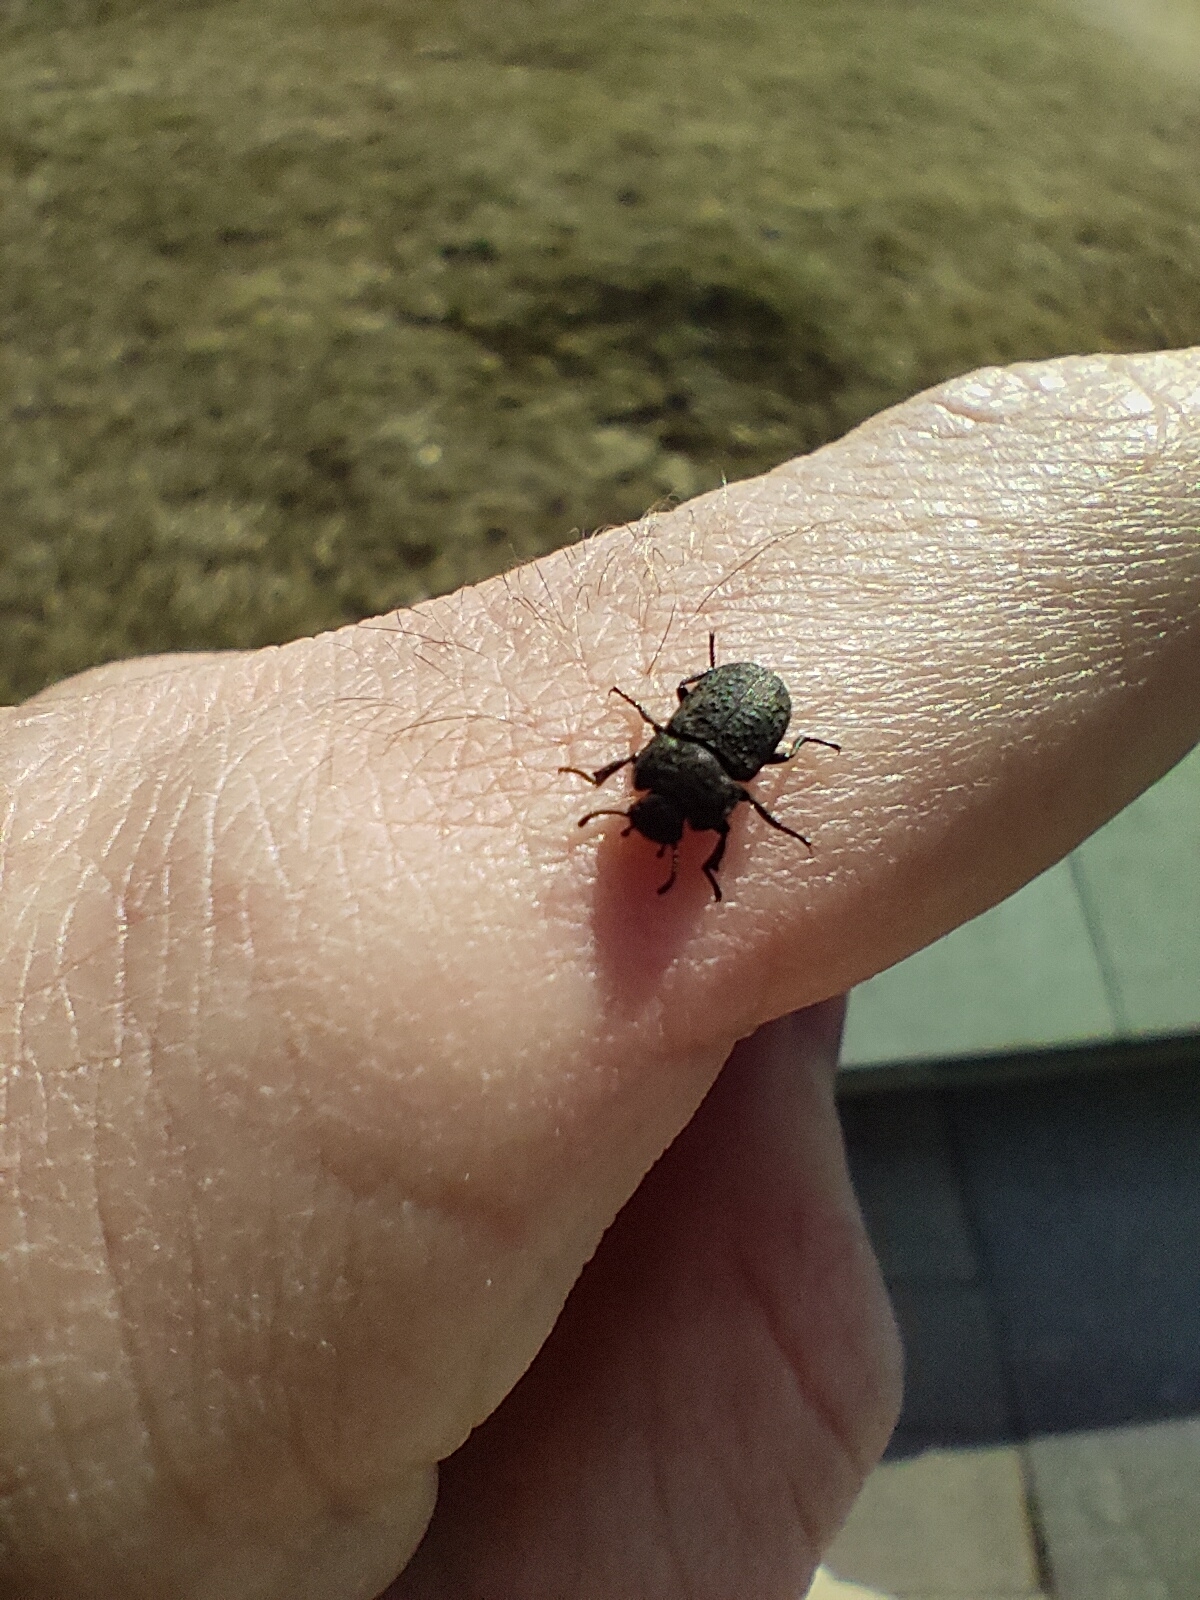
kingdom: Animalia
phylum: Arthropoda
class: Insecta
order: Coleoptera
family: Tenebrionidae
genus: Opatrum
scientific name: Opatrum sabulosum
